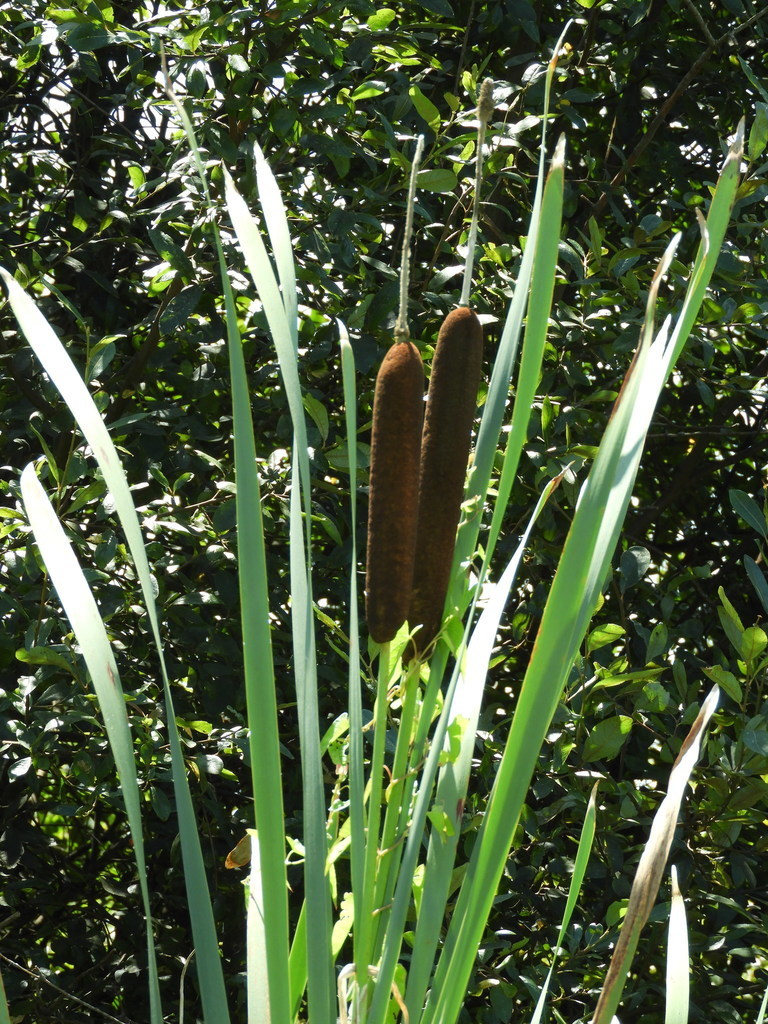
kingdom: Plantae
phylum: Tracheophyta
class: Liliopsida
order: Poales
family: Typhaceae
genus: Typha
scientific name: Typha latifolia
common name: Broadleaf cattail
